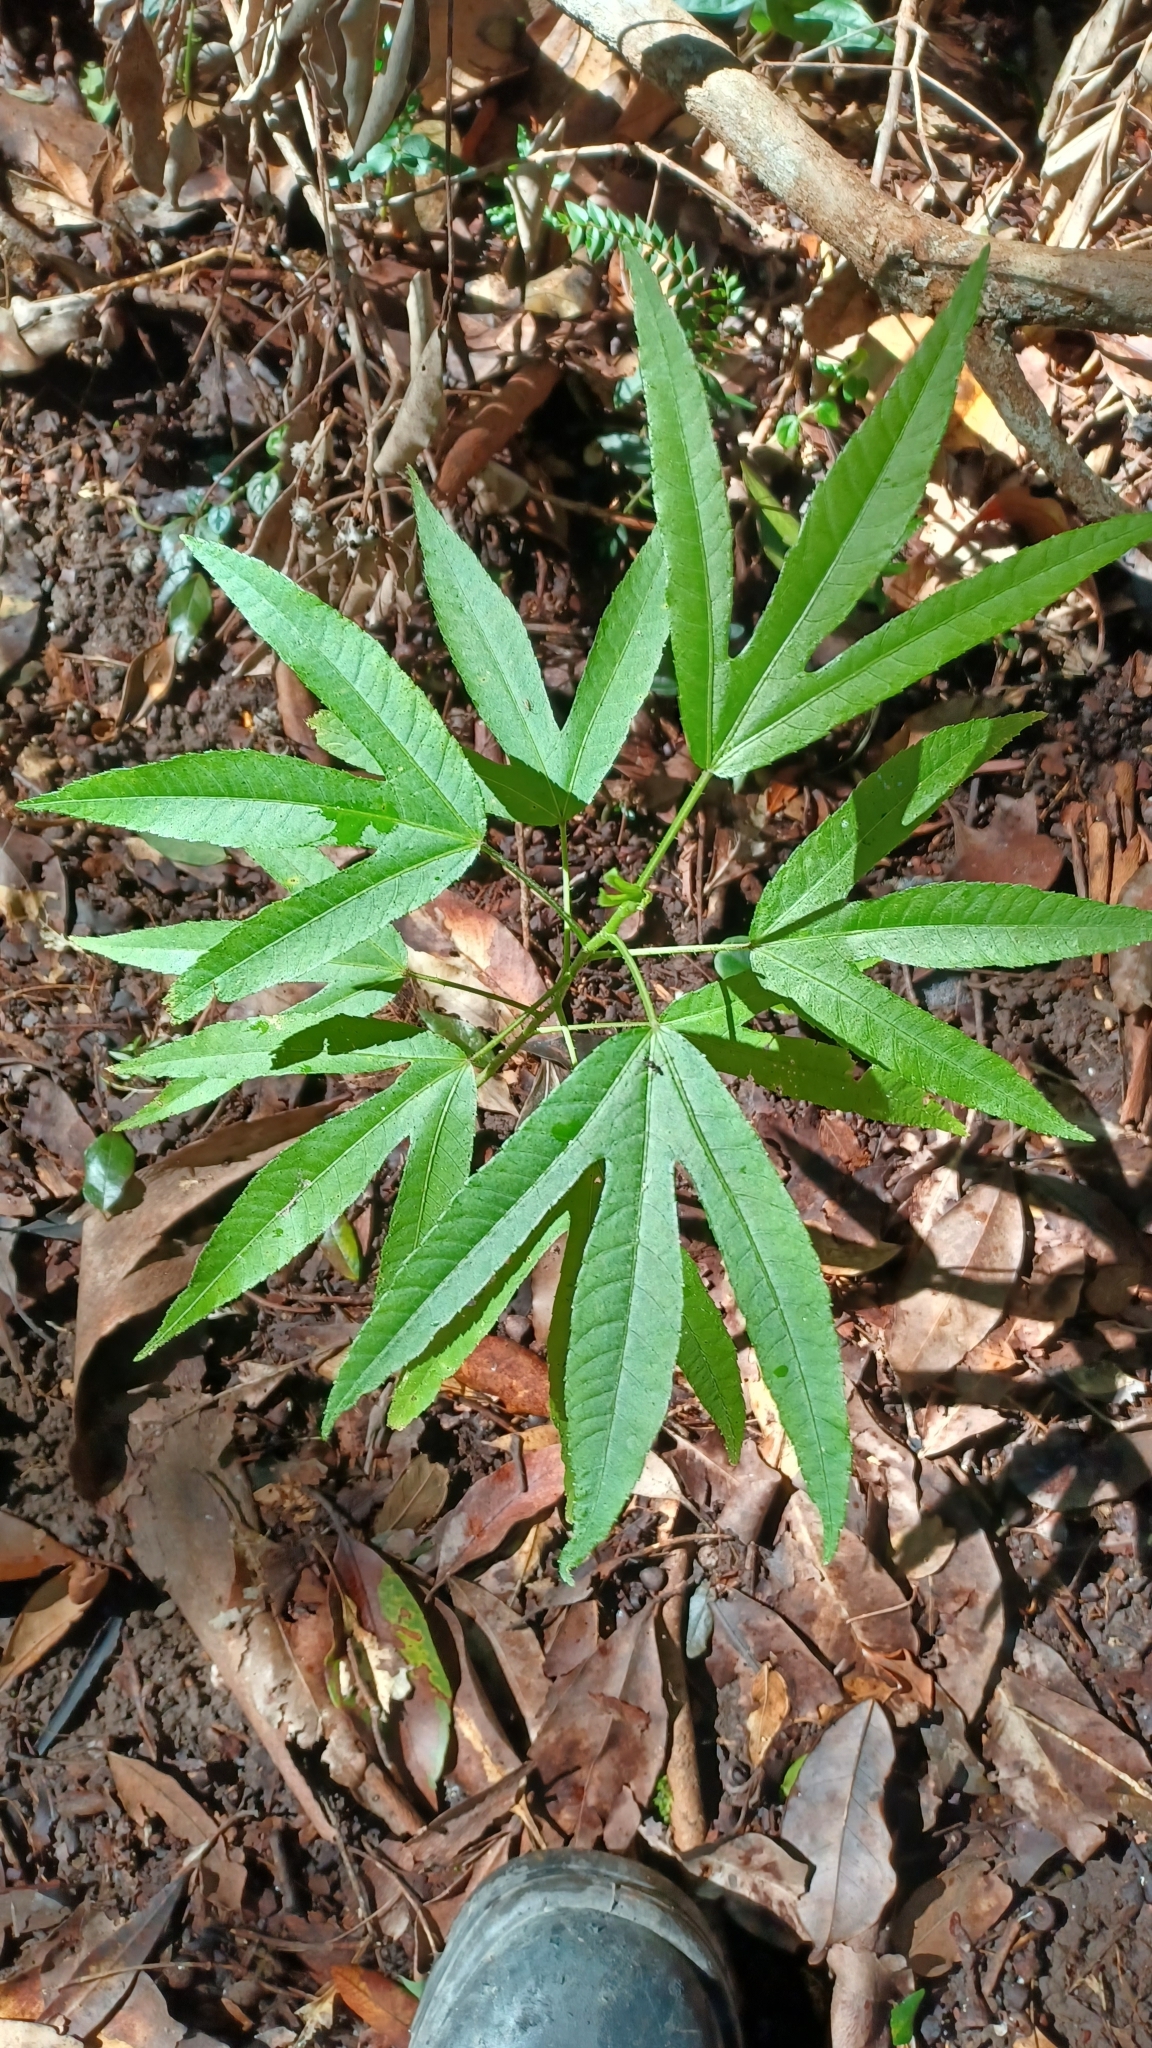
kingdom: Plantae
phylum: Tracheophyta
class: Magnoliopsida
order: Malvales
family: Malvaceae
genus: Hibiscus
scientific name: Hibiscus heterophyllus
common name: Queensland-sorrel
